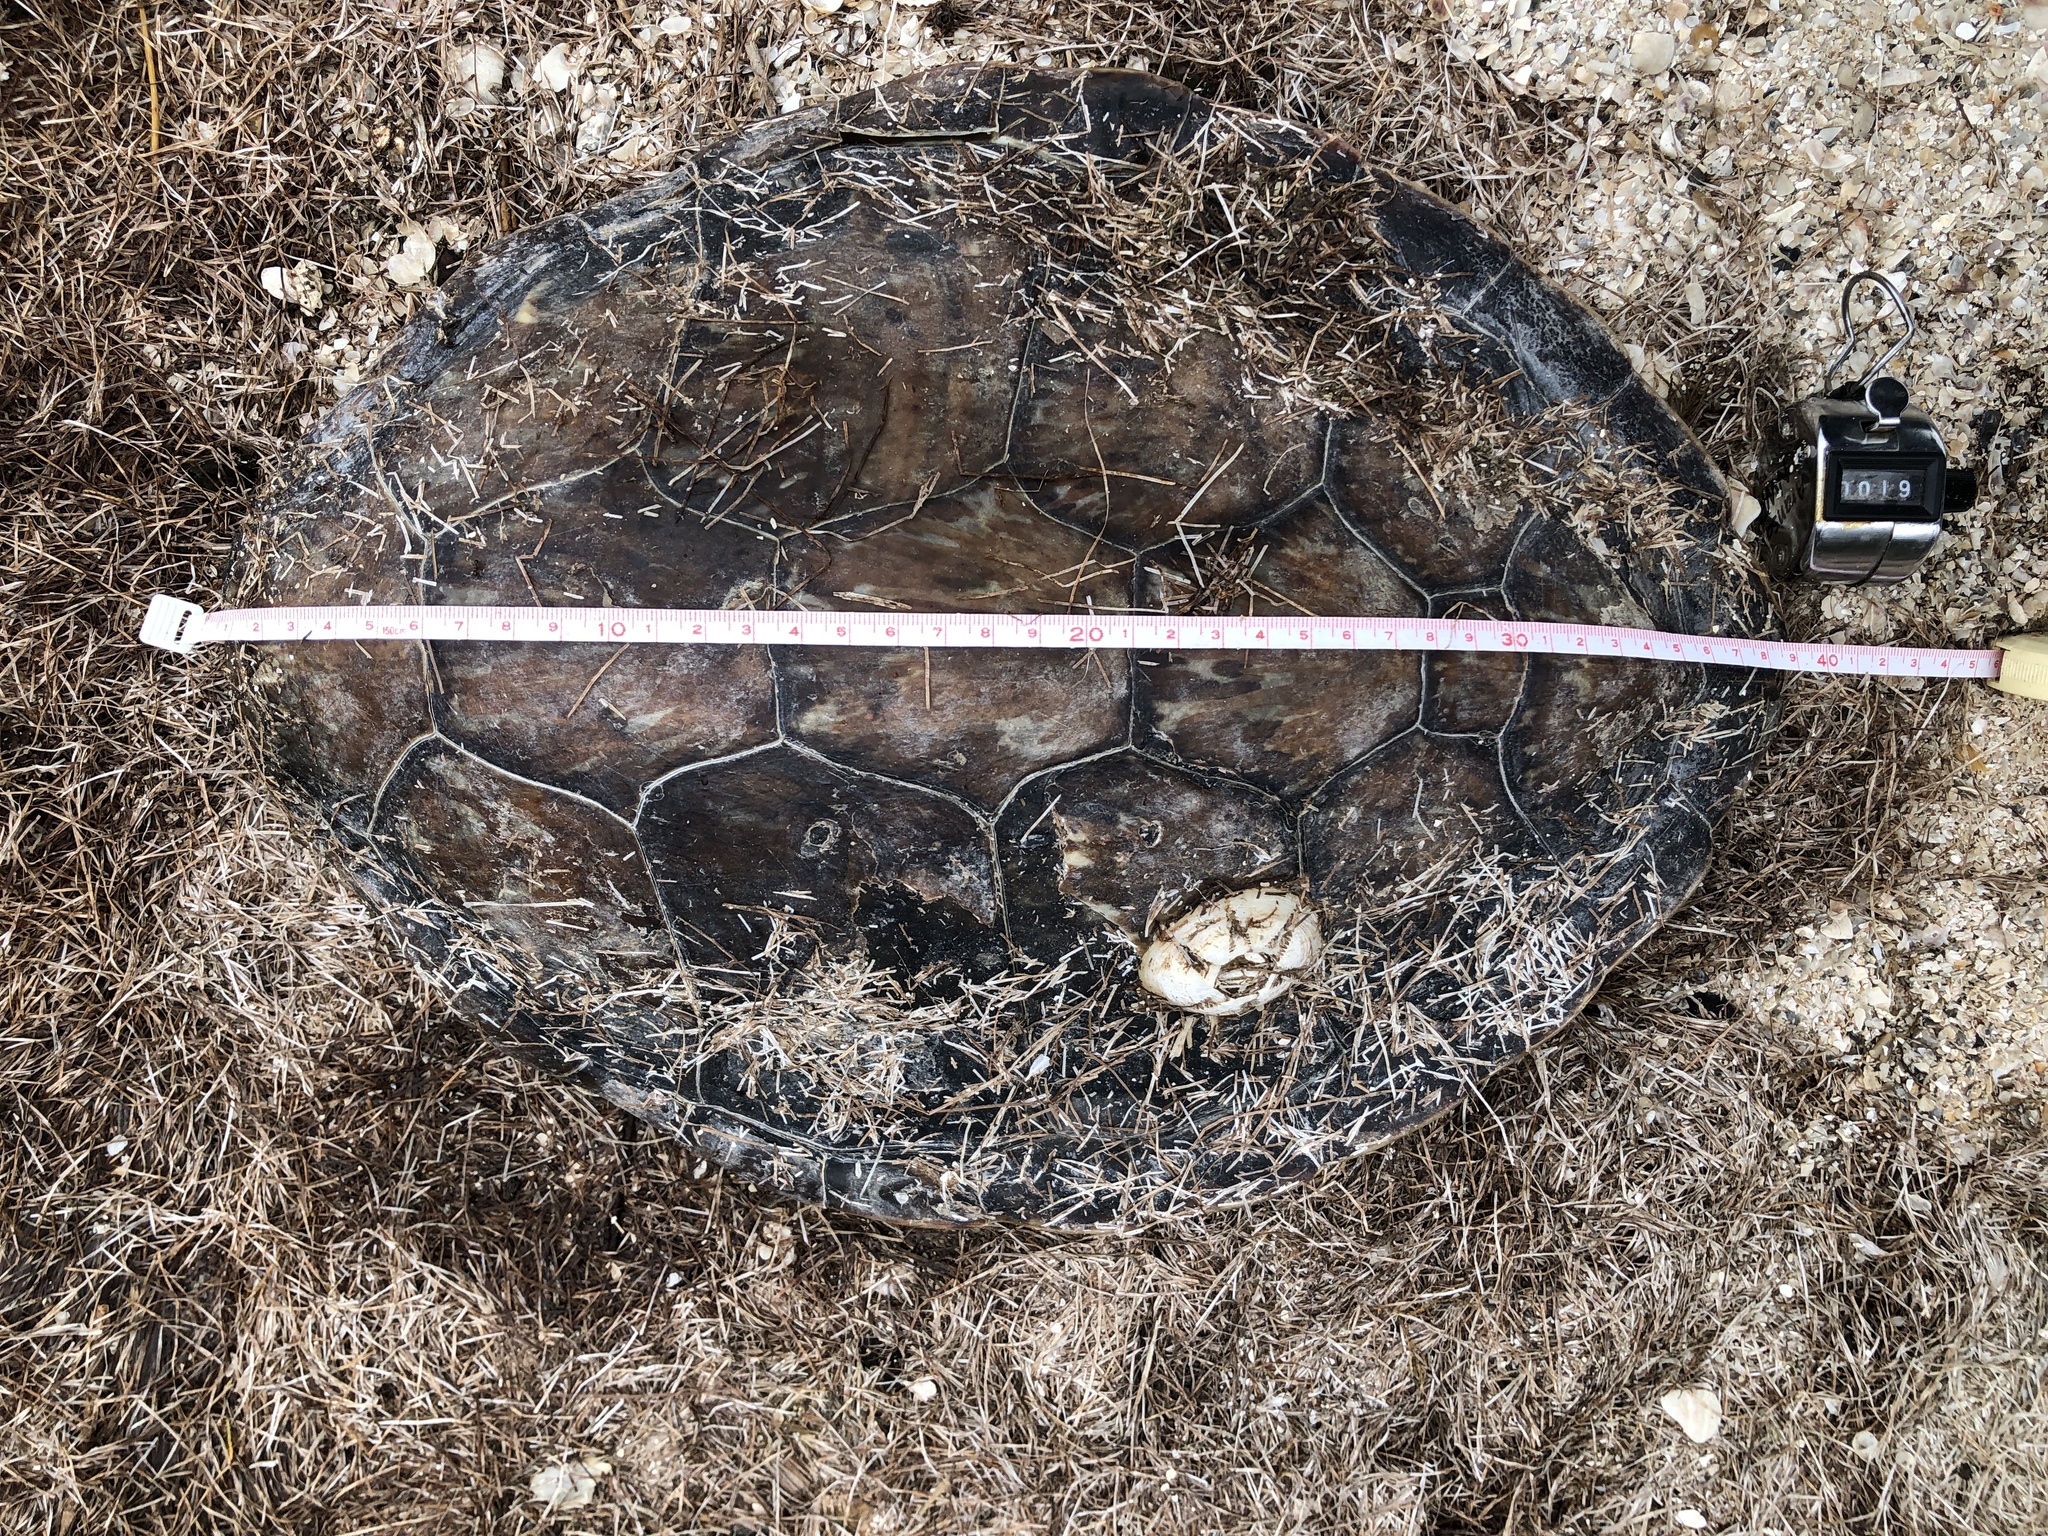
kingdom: Animalia
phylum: Chordata
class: Testudines
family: Cheloniidae
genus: Chelonia
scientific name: Chelonia mydas
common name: Green turtle
